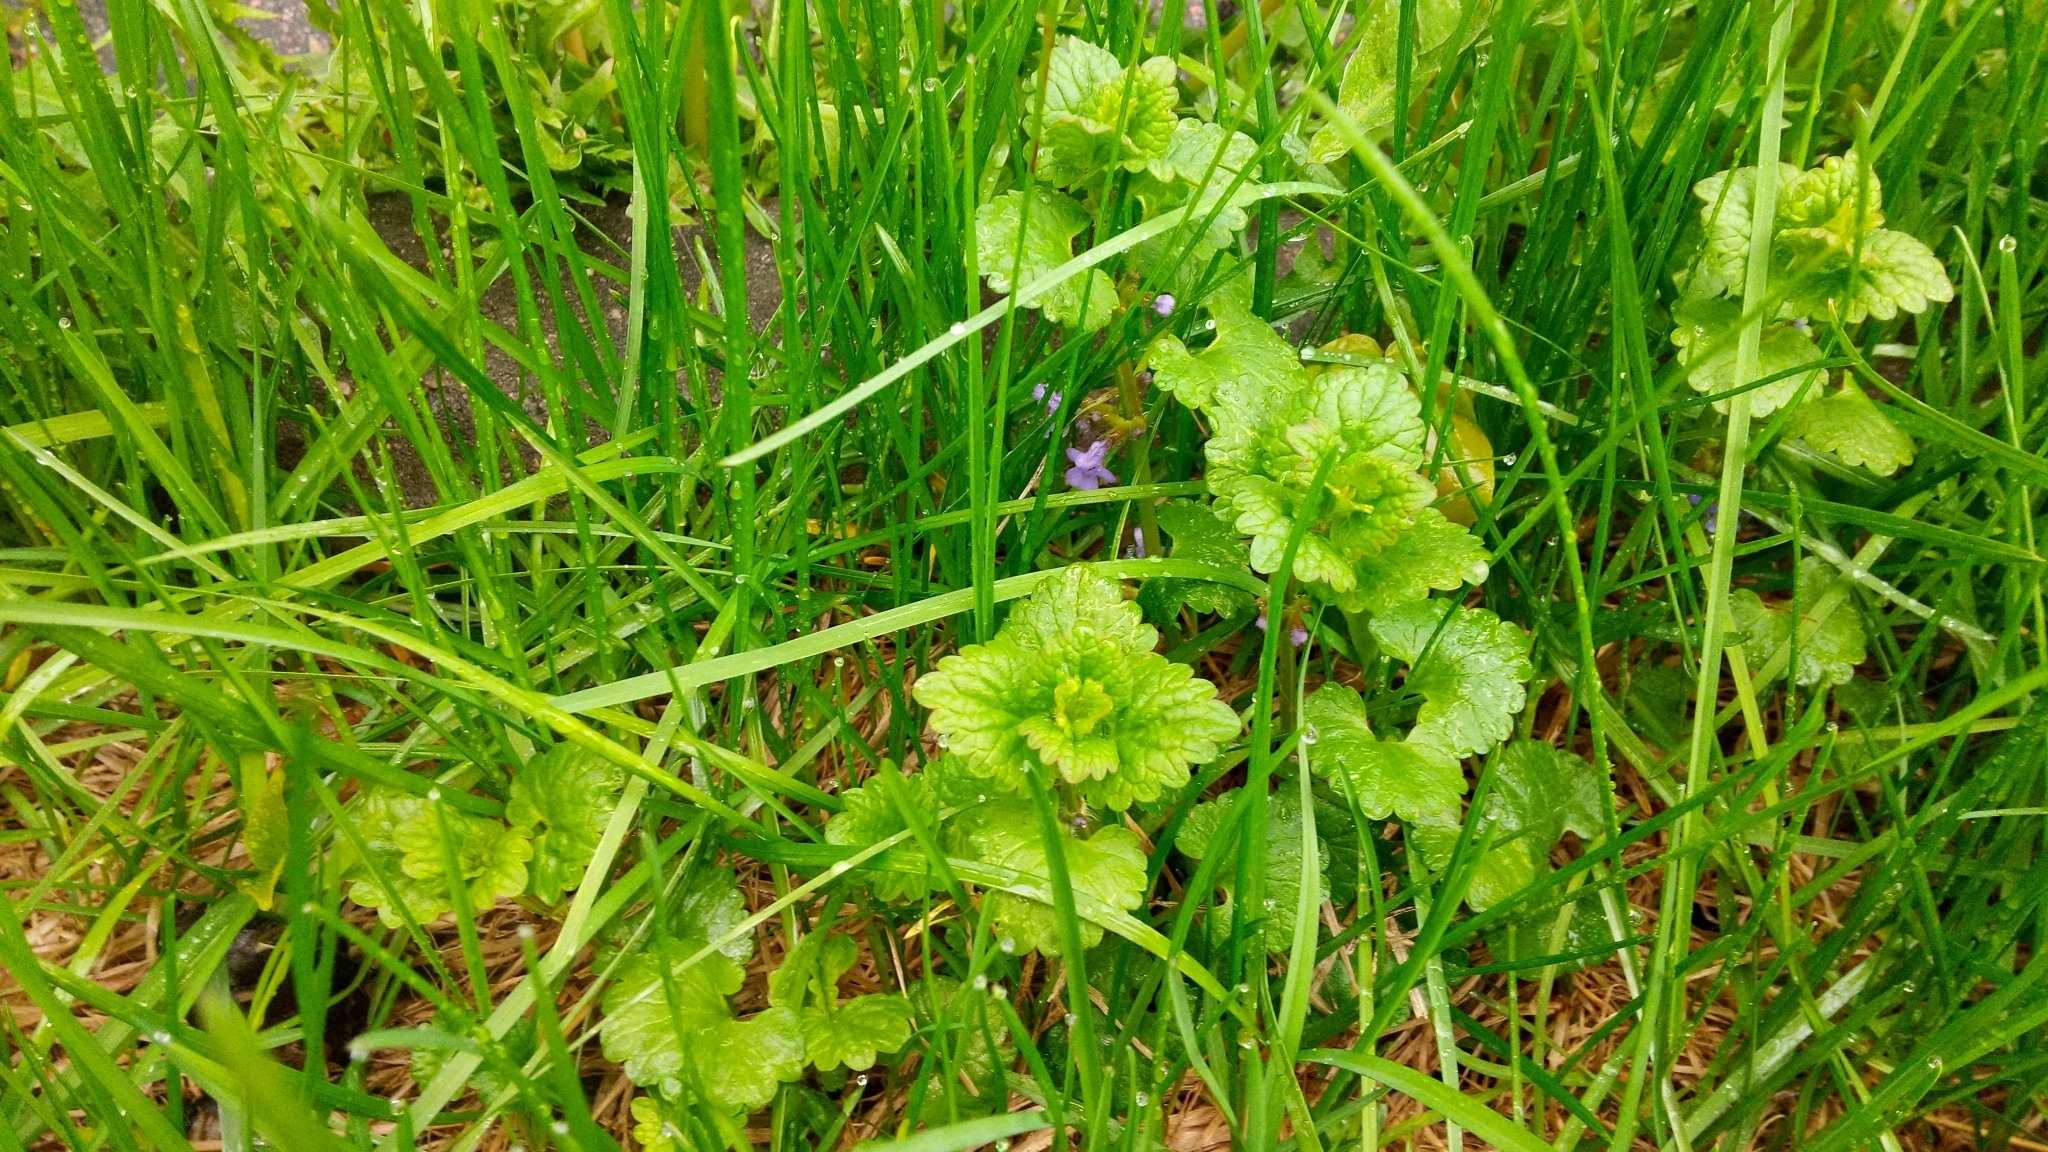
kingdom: Plantae
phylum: Tracheophyta
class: Magnoliopsida
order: Lamiales
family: Lamiaceae
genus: Glechoma
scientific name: Glechoma hederacea
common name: Ground ivy
